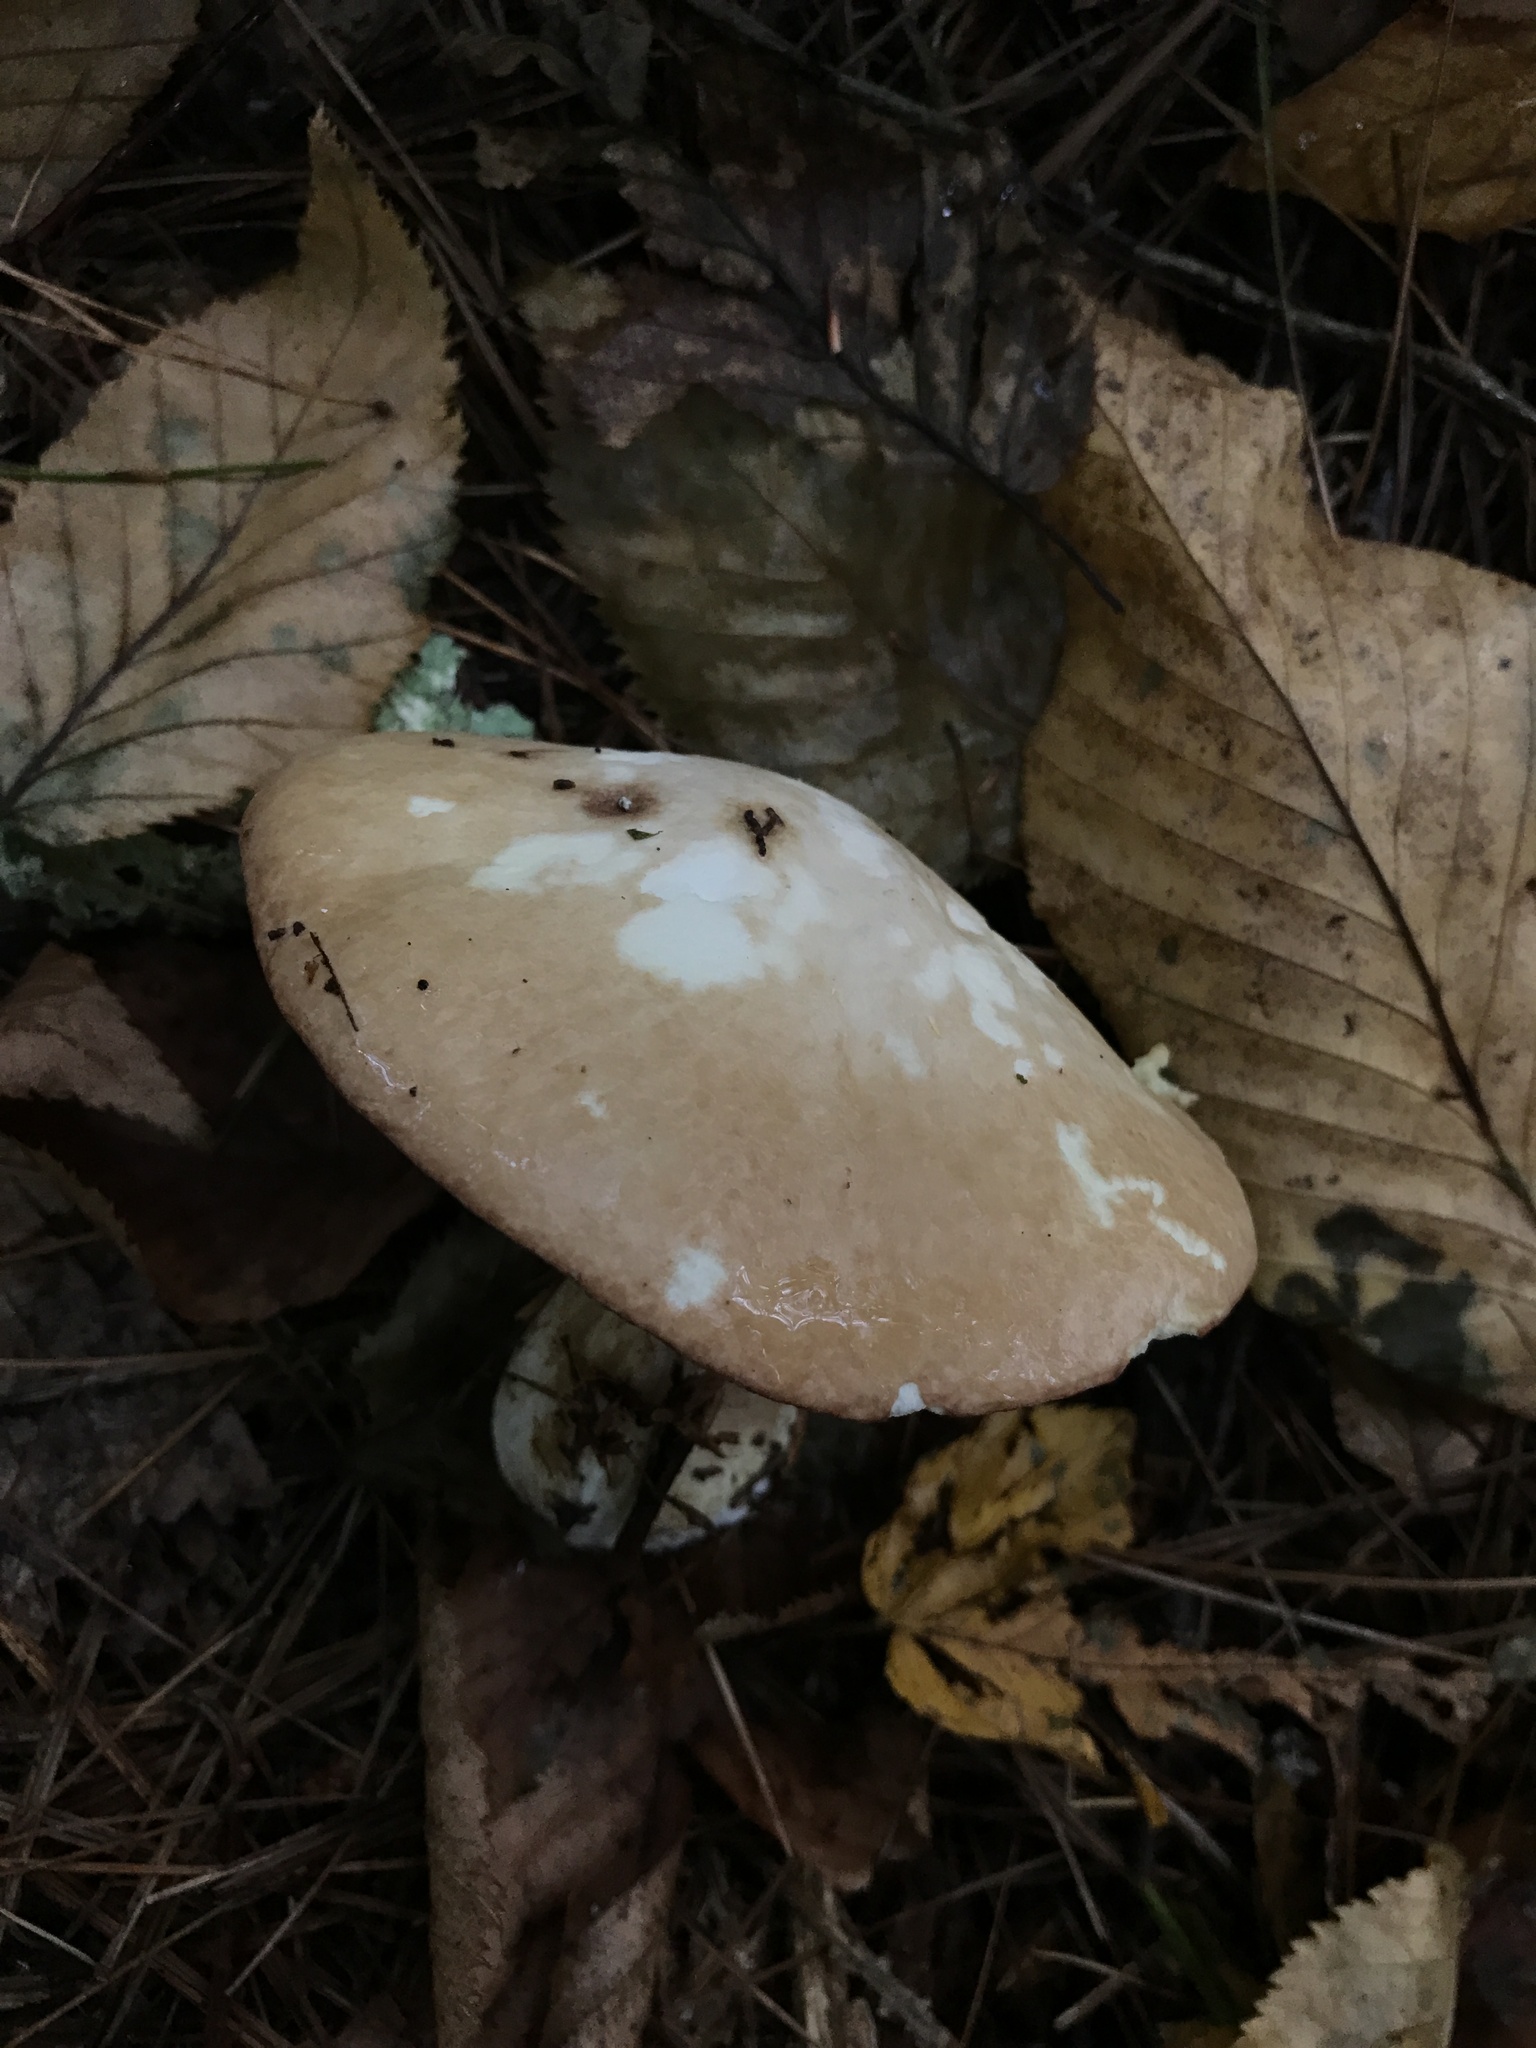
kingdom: Fungi
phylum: Basidiomycota
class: Agaricomycetes
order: Boletales
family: Suillaceae
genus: Fuscoboletinus
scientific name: Fuscoboletinus weaverae
